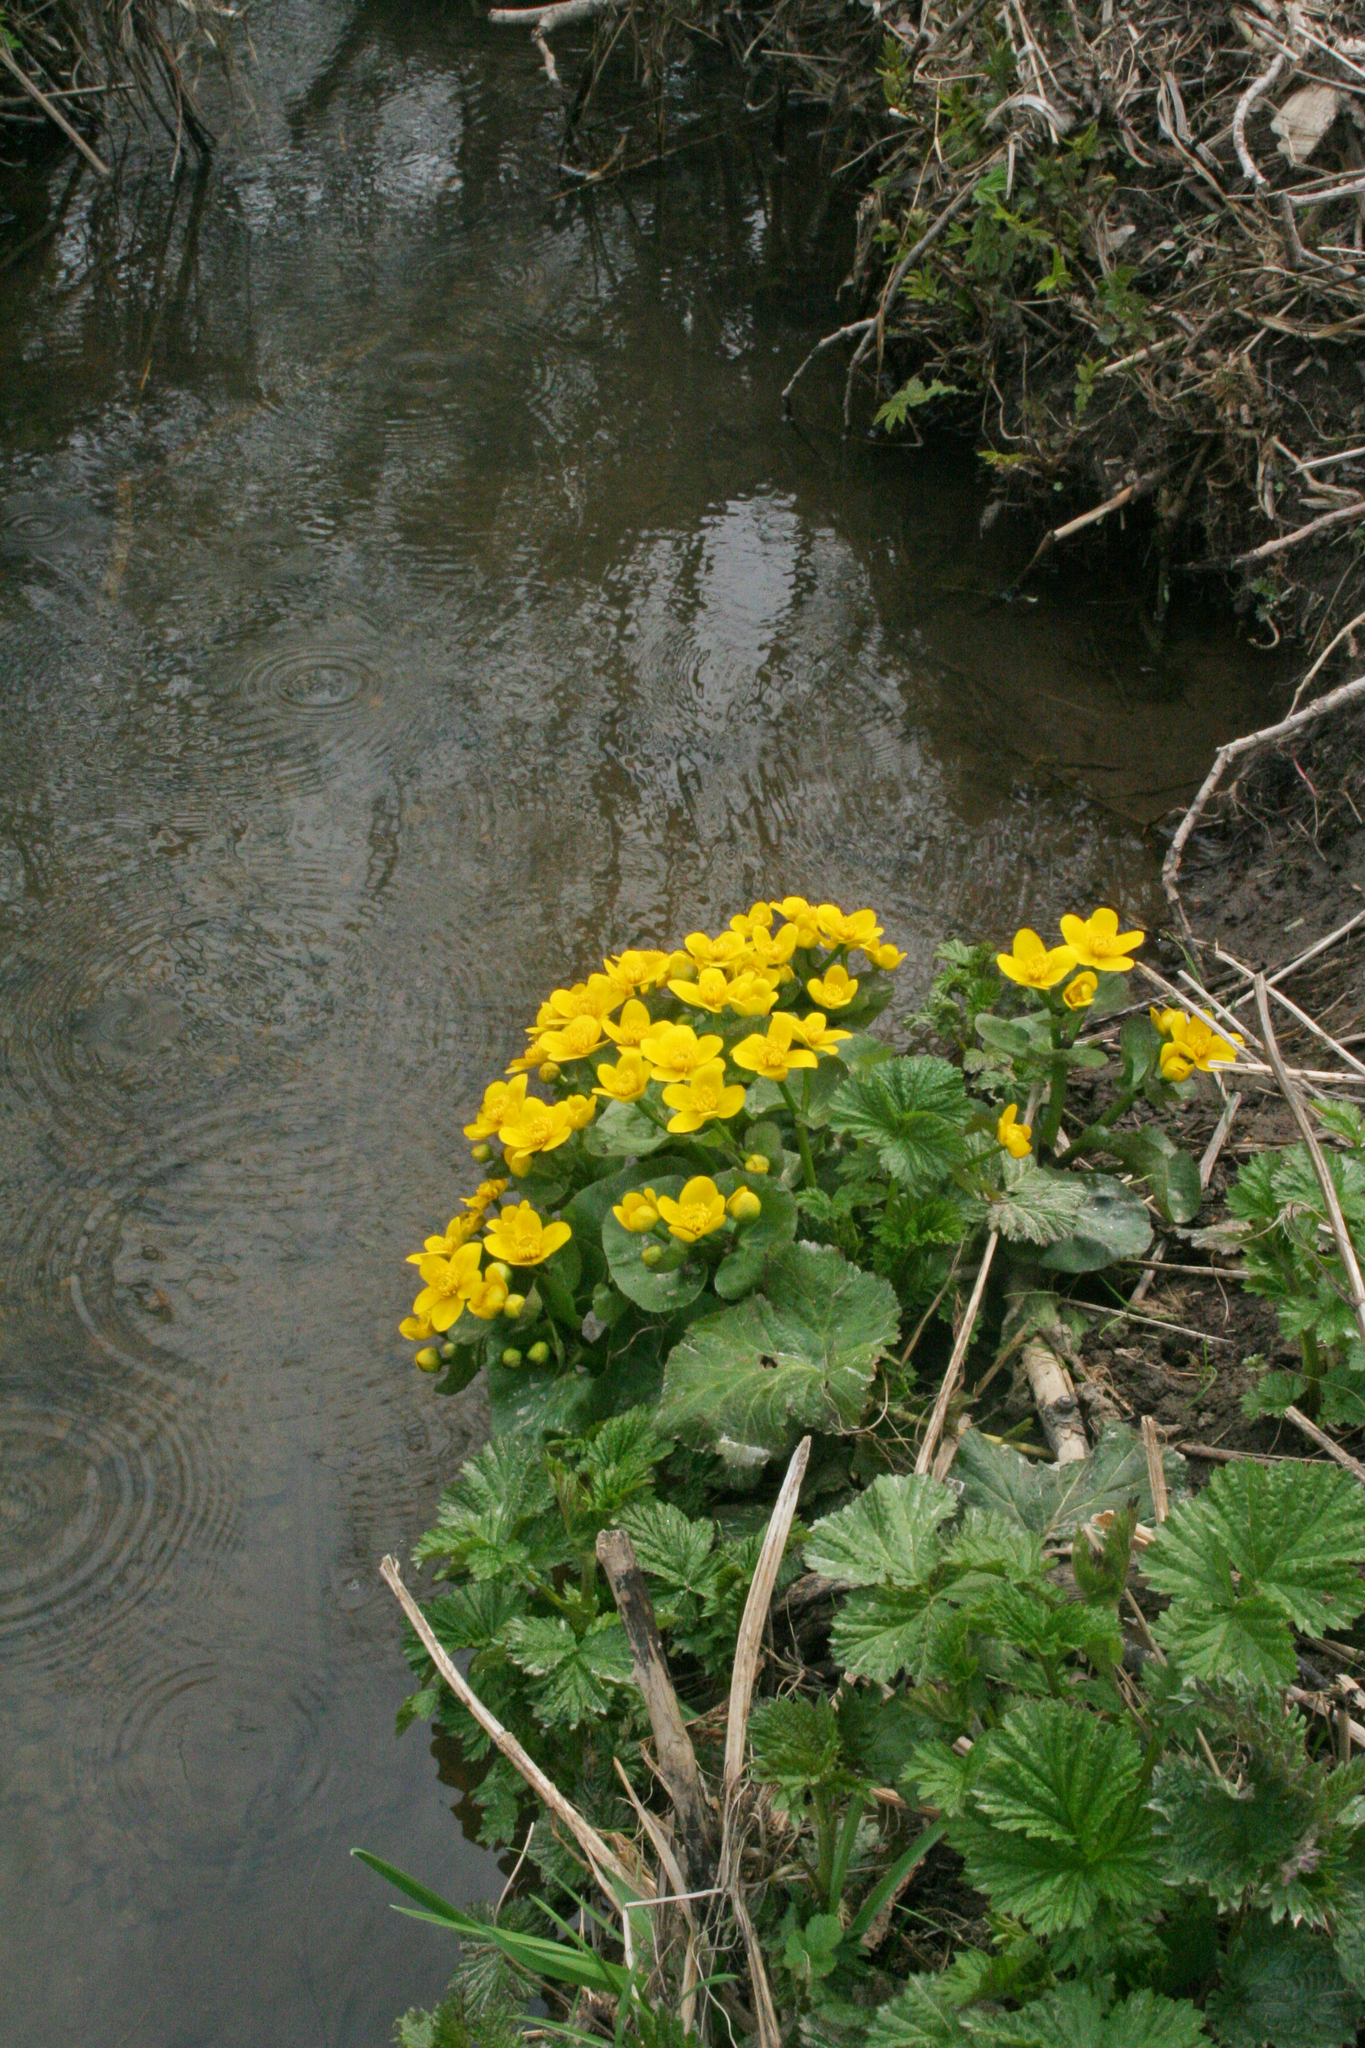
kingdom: Plantae
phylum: Tracheophyta
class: Magnoliopsida
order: Ranunculales
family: Ranunculaceae
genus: Caltha
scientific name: Caltha palustris
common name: Marsh marigold
